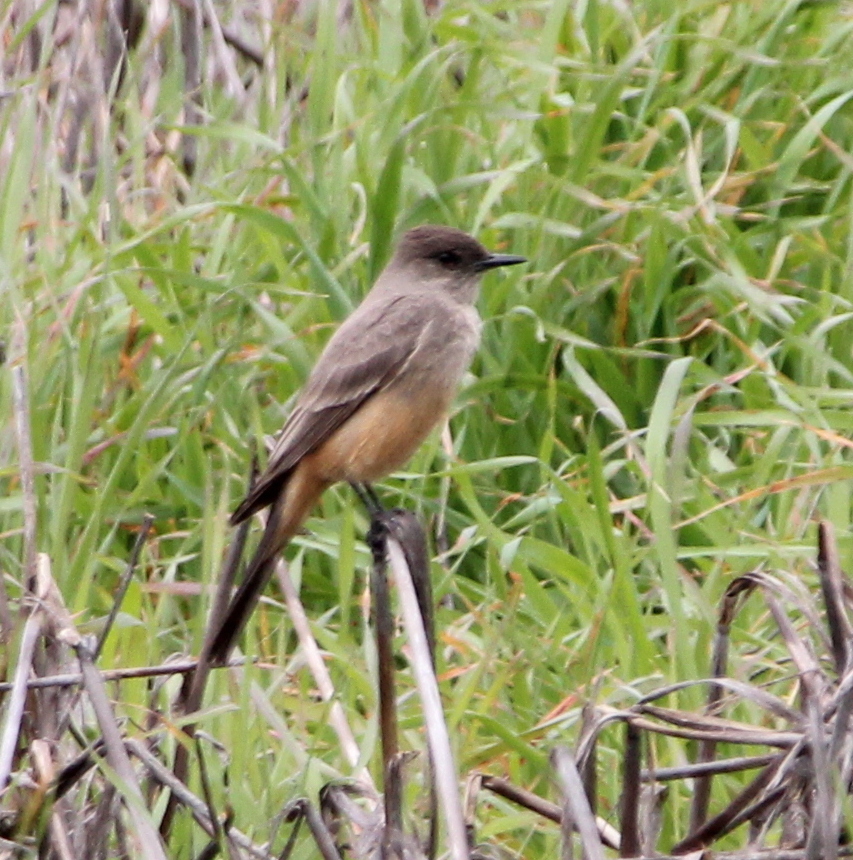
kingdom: Animalia
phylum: Chordata
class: Aves
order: Passeriformes
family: Tyrannidae
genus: Sayornis
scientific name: Sayornis saya
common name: Say's phoebe
